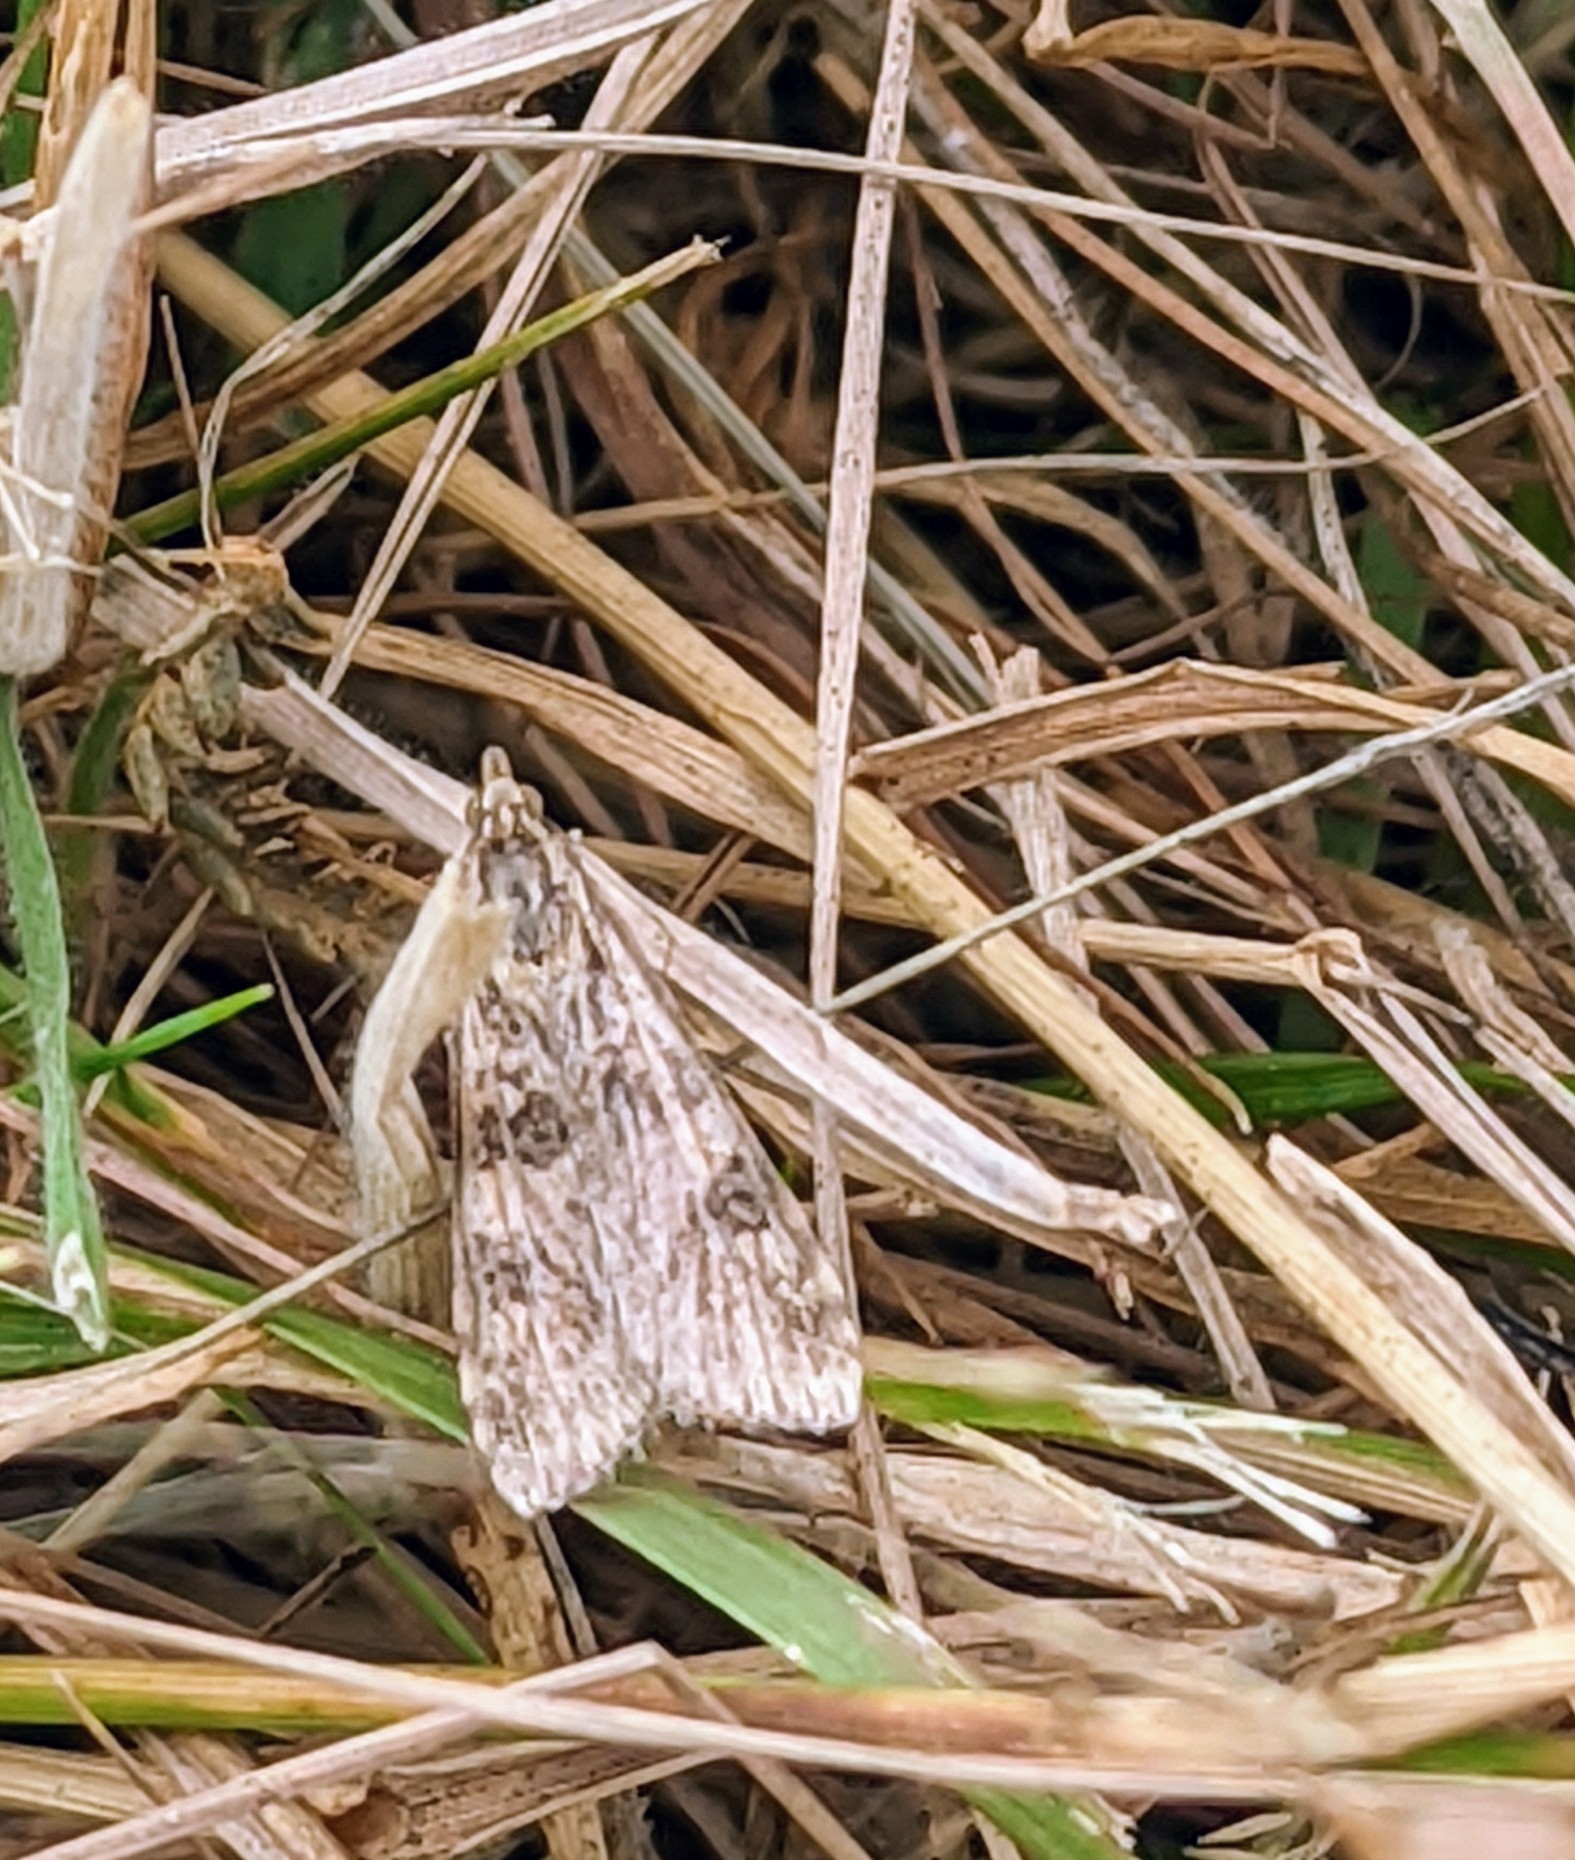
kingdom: Animalia
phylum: Arthropoda
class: Insecta
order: Lepidoptera
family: Crambidae
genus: Nomophila
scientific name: Nomophila noctuella
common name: Rush veneer
